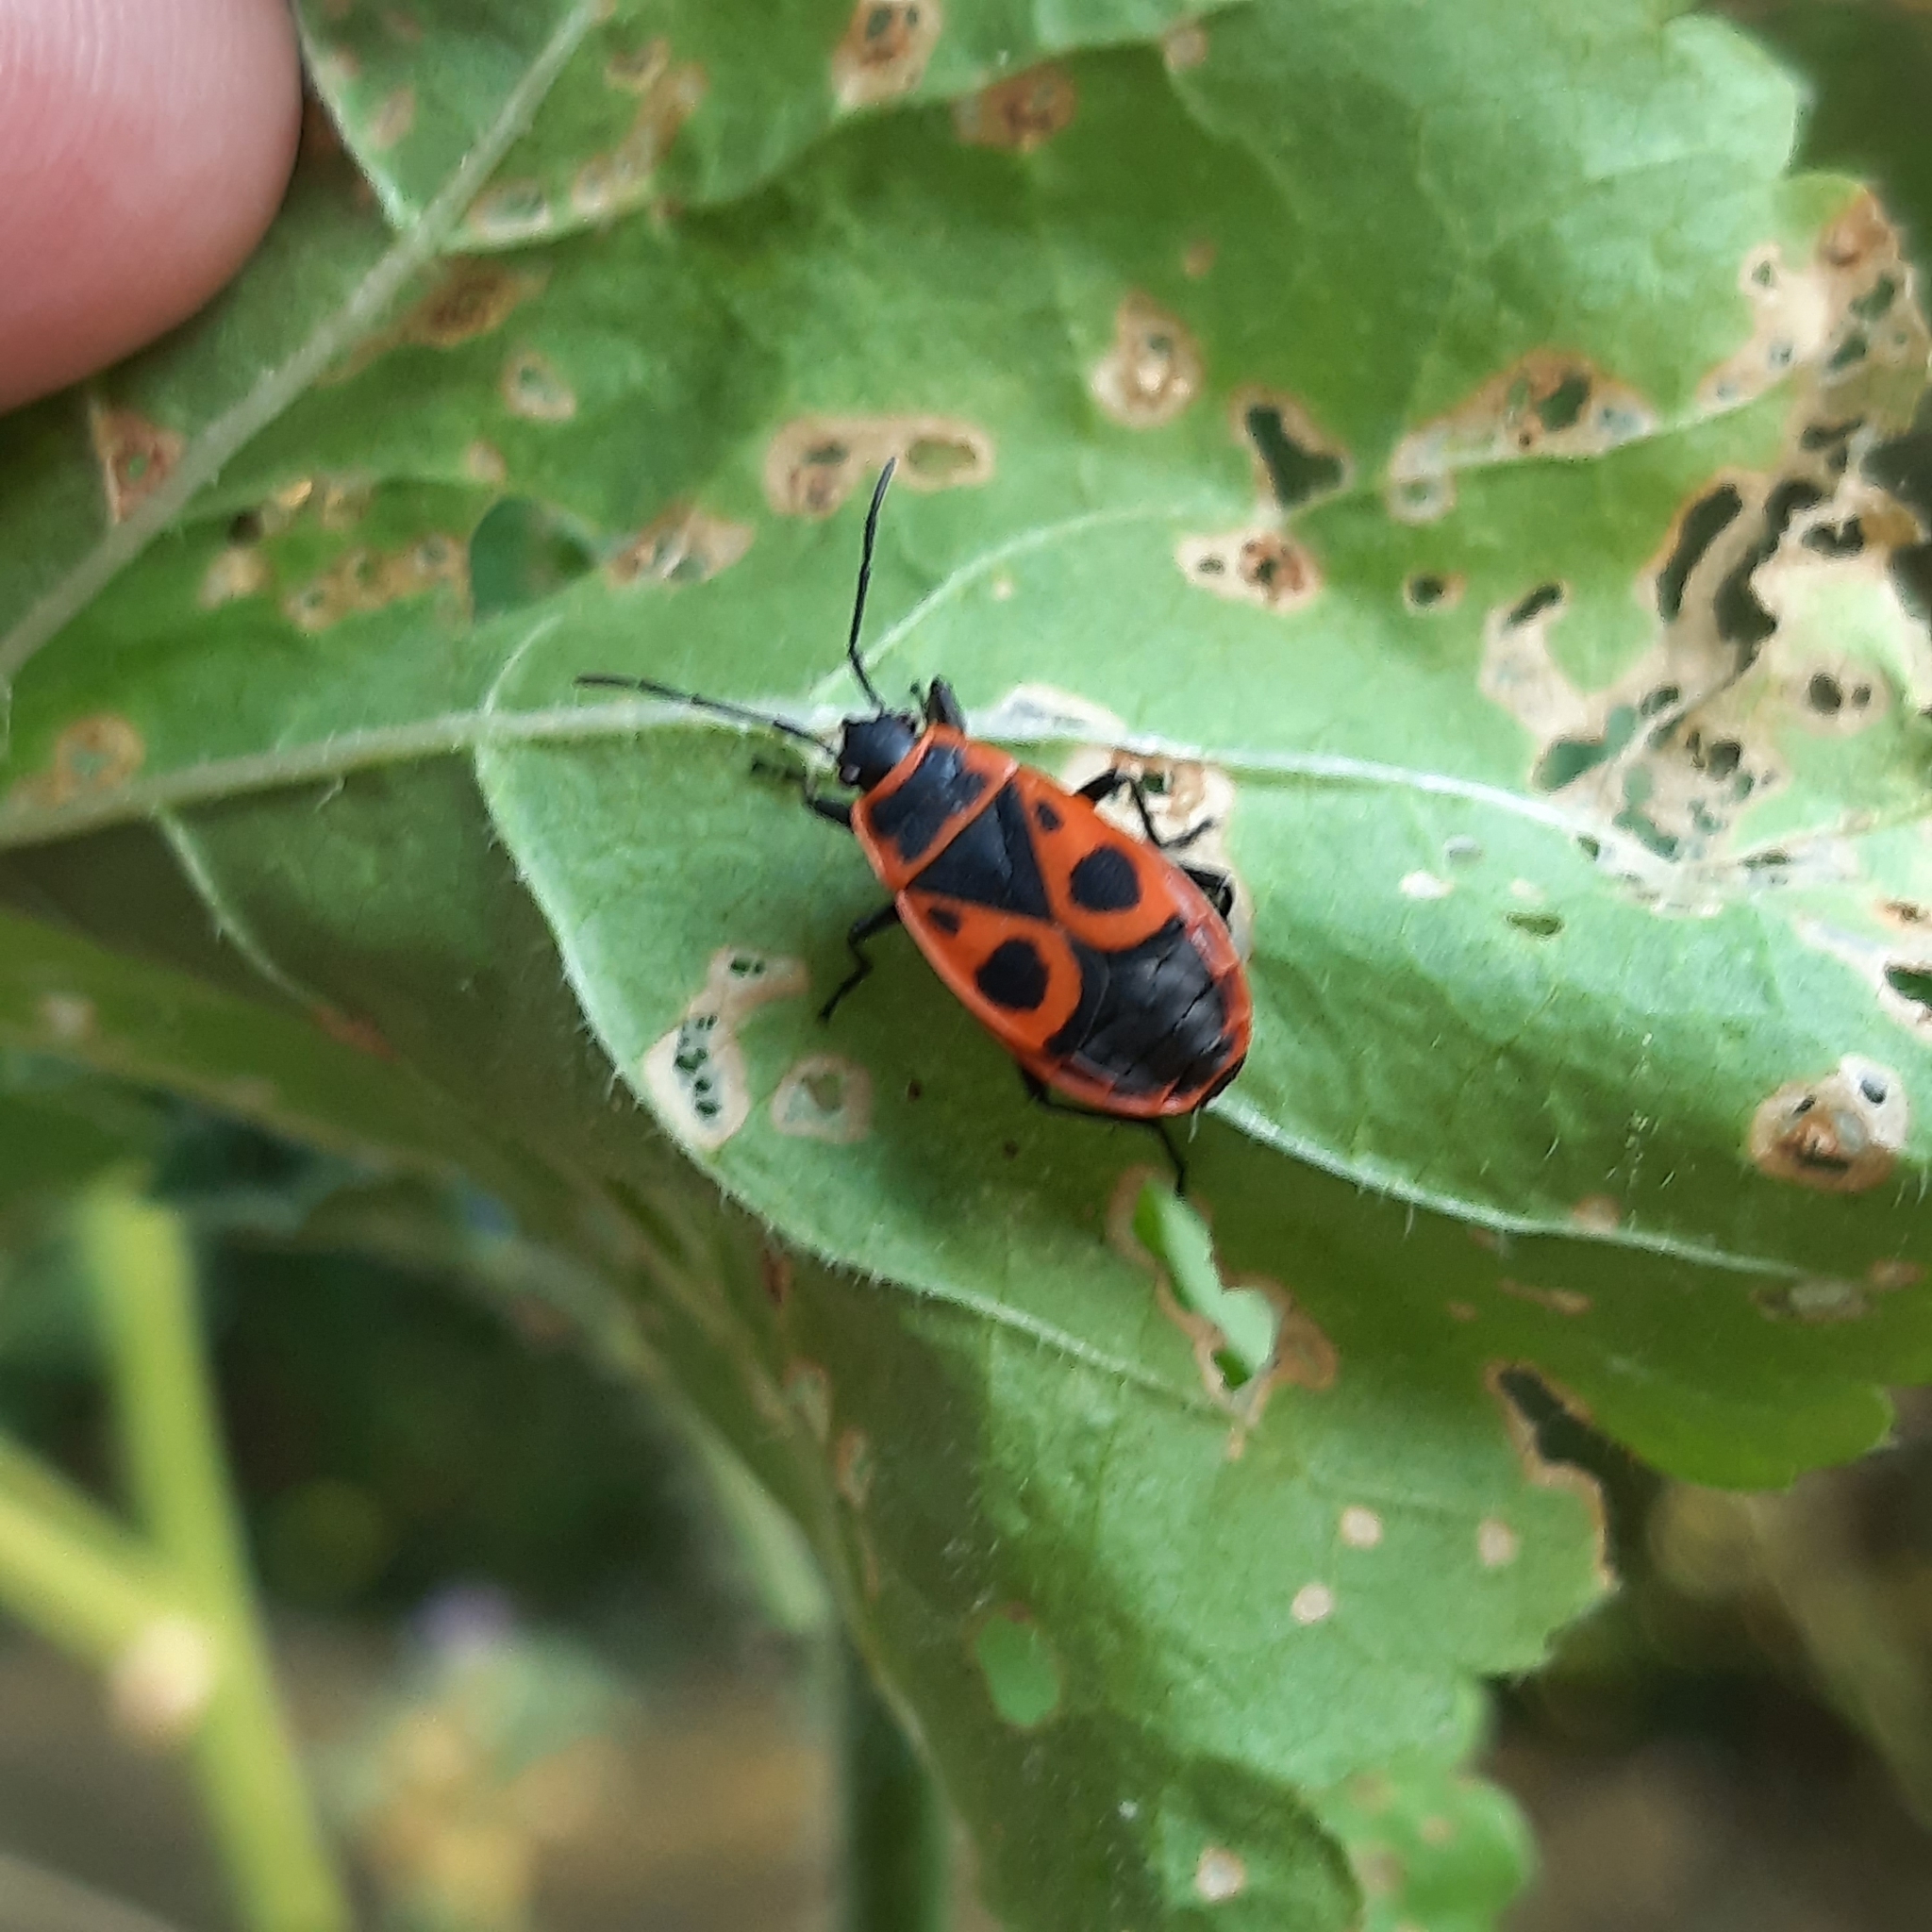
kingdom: Animalia
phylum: Arthropoda
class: Insecta
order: Hemiptera
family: Pyrrhocoridae
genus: Pyrrhocoris
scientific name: Pyrrhocoris apterus
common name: Firebug
